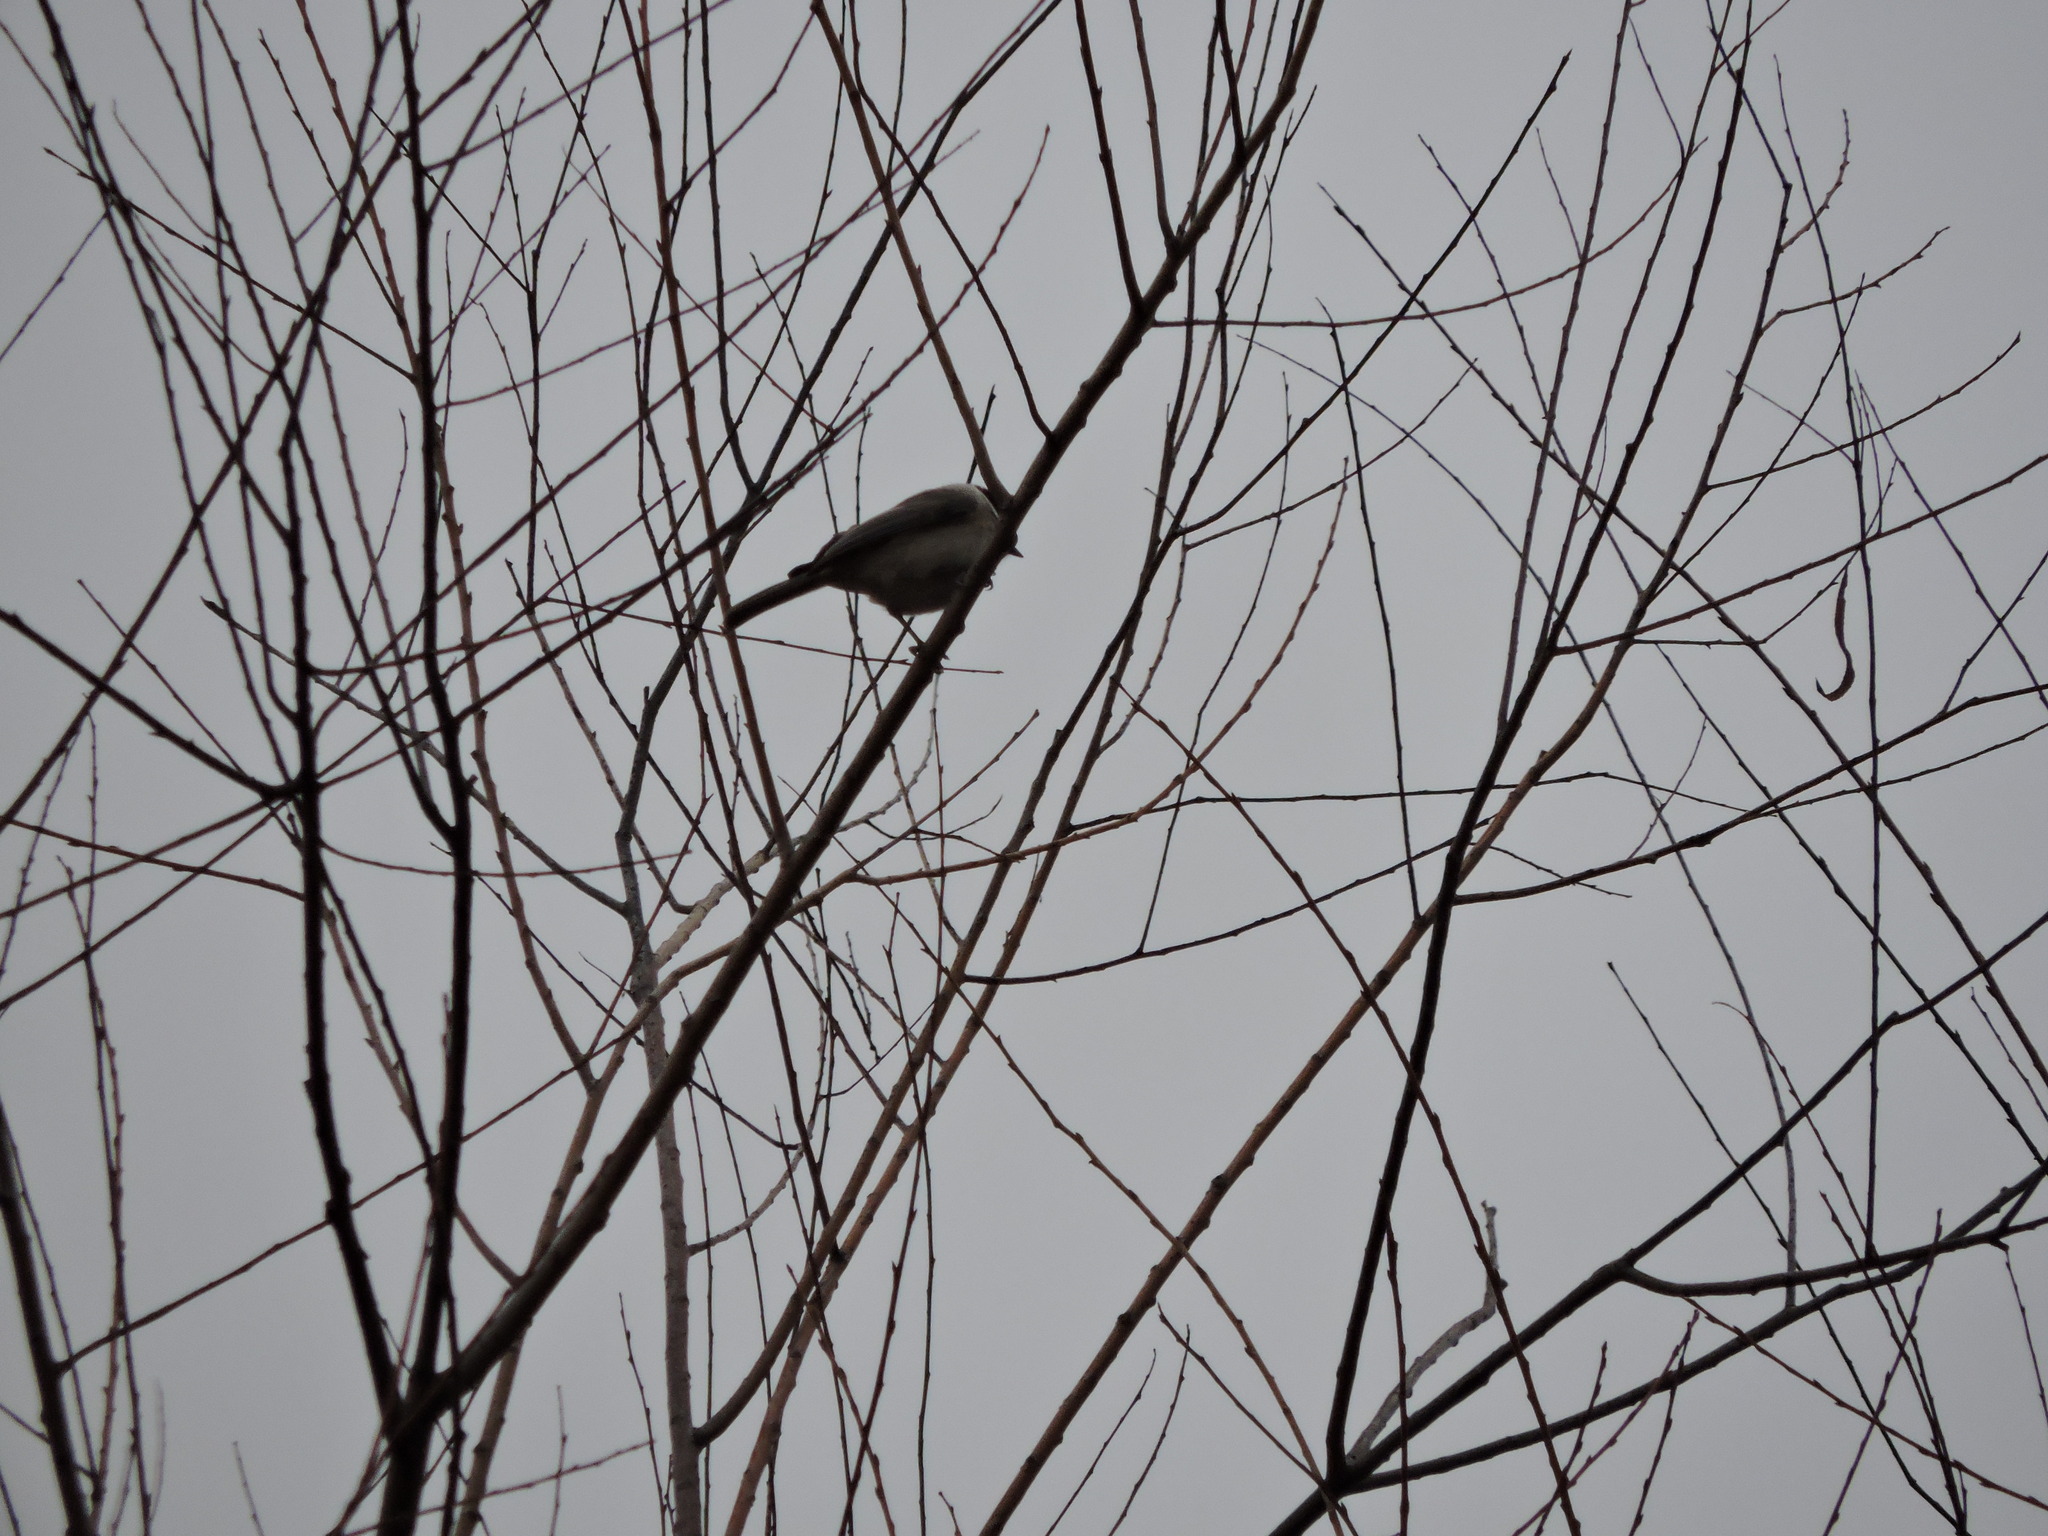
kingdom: Animalia
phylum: Chordata
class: Aves
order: Passeriformes
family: Paridae
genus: Poecile
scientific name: Poecile carolinensis
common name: Carolina chickadee
